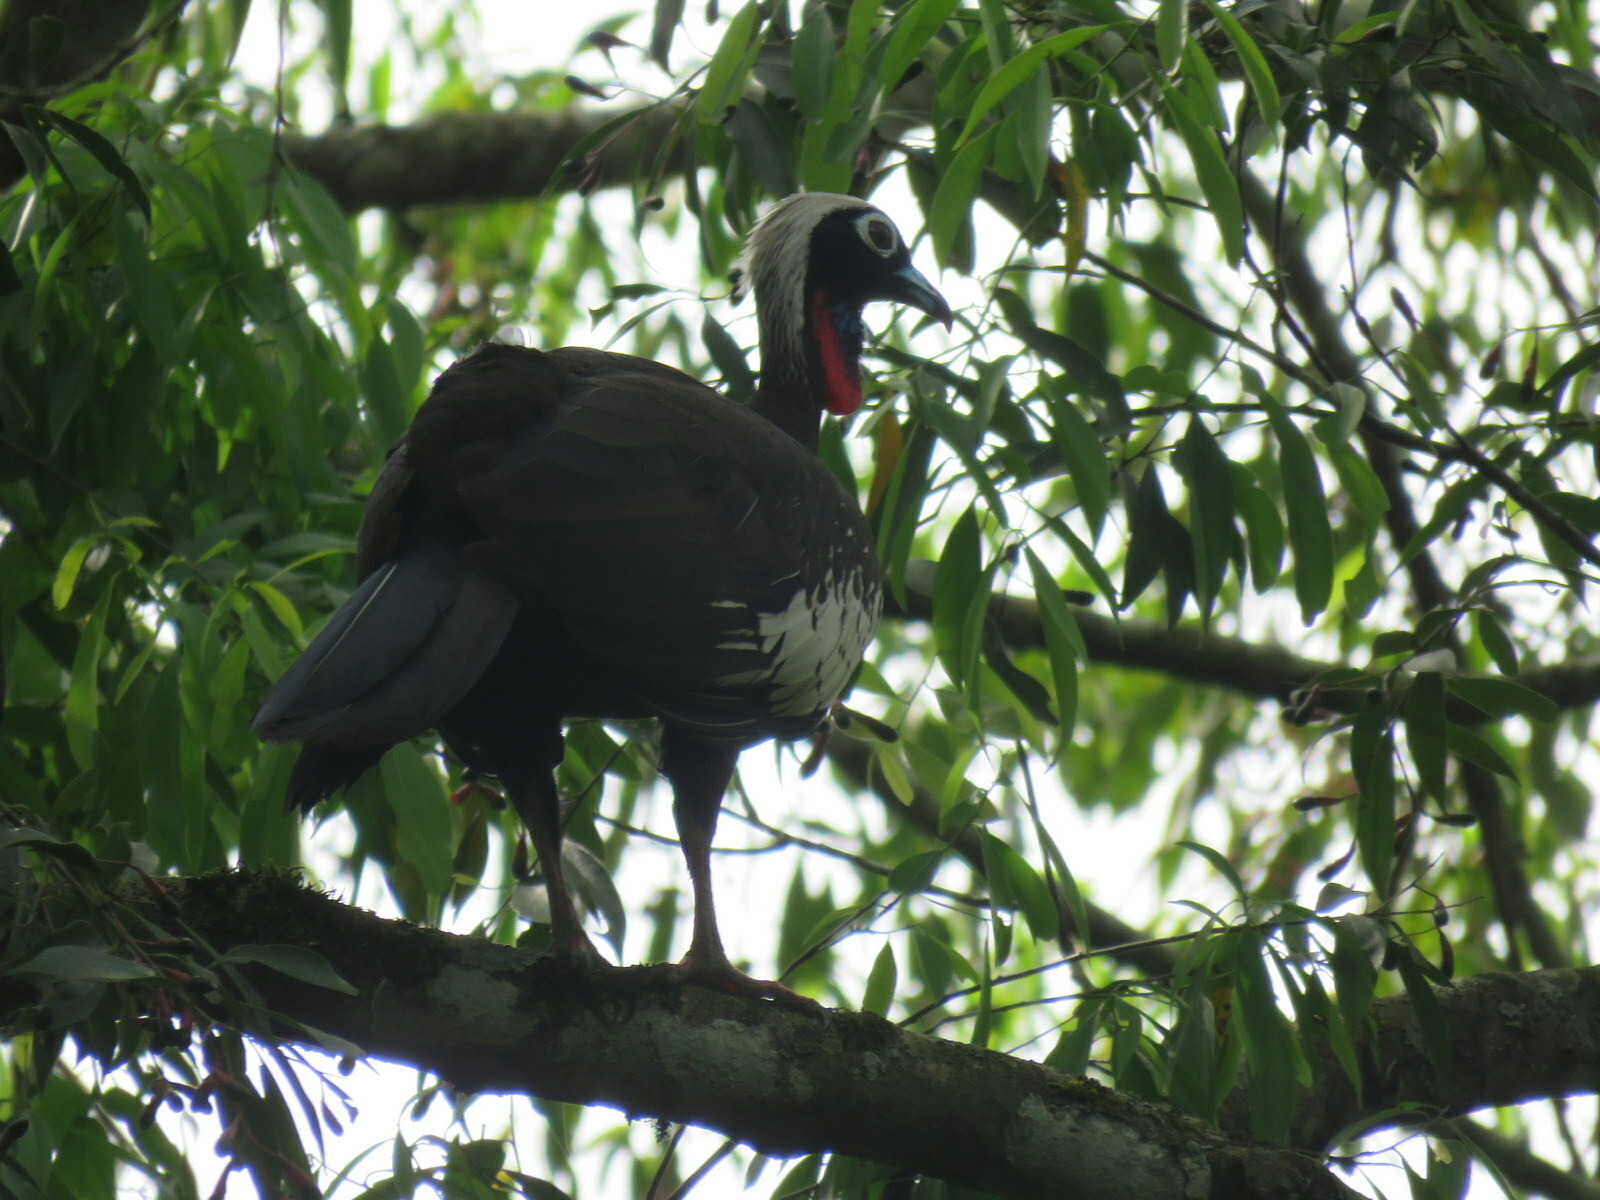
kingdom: Animalia
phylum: Chordata
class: Aves
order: Galliformes
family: Cracidae
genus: Pipile
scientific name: Pipile jacutinga
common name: Black-fronted piping-guan
